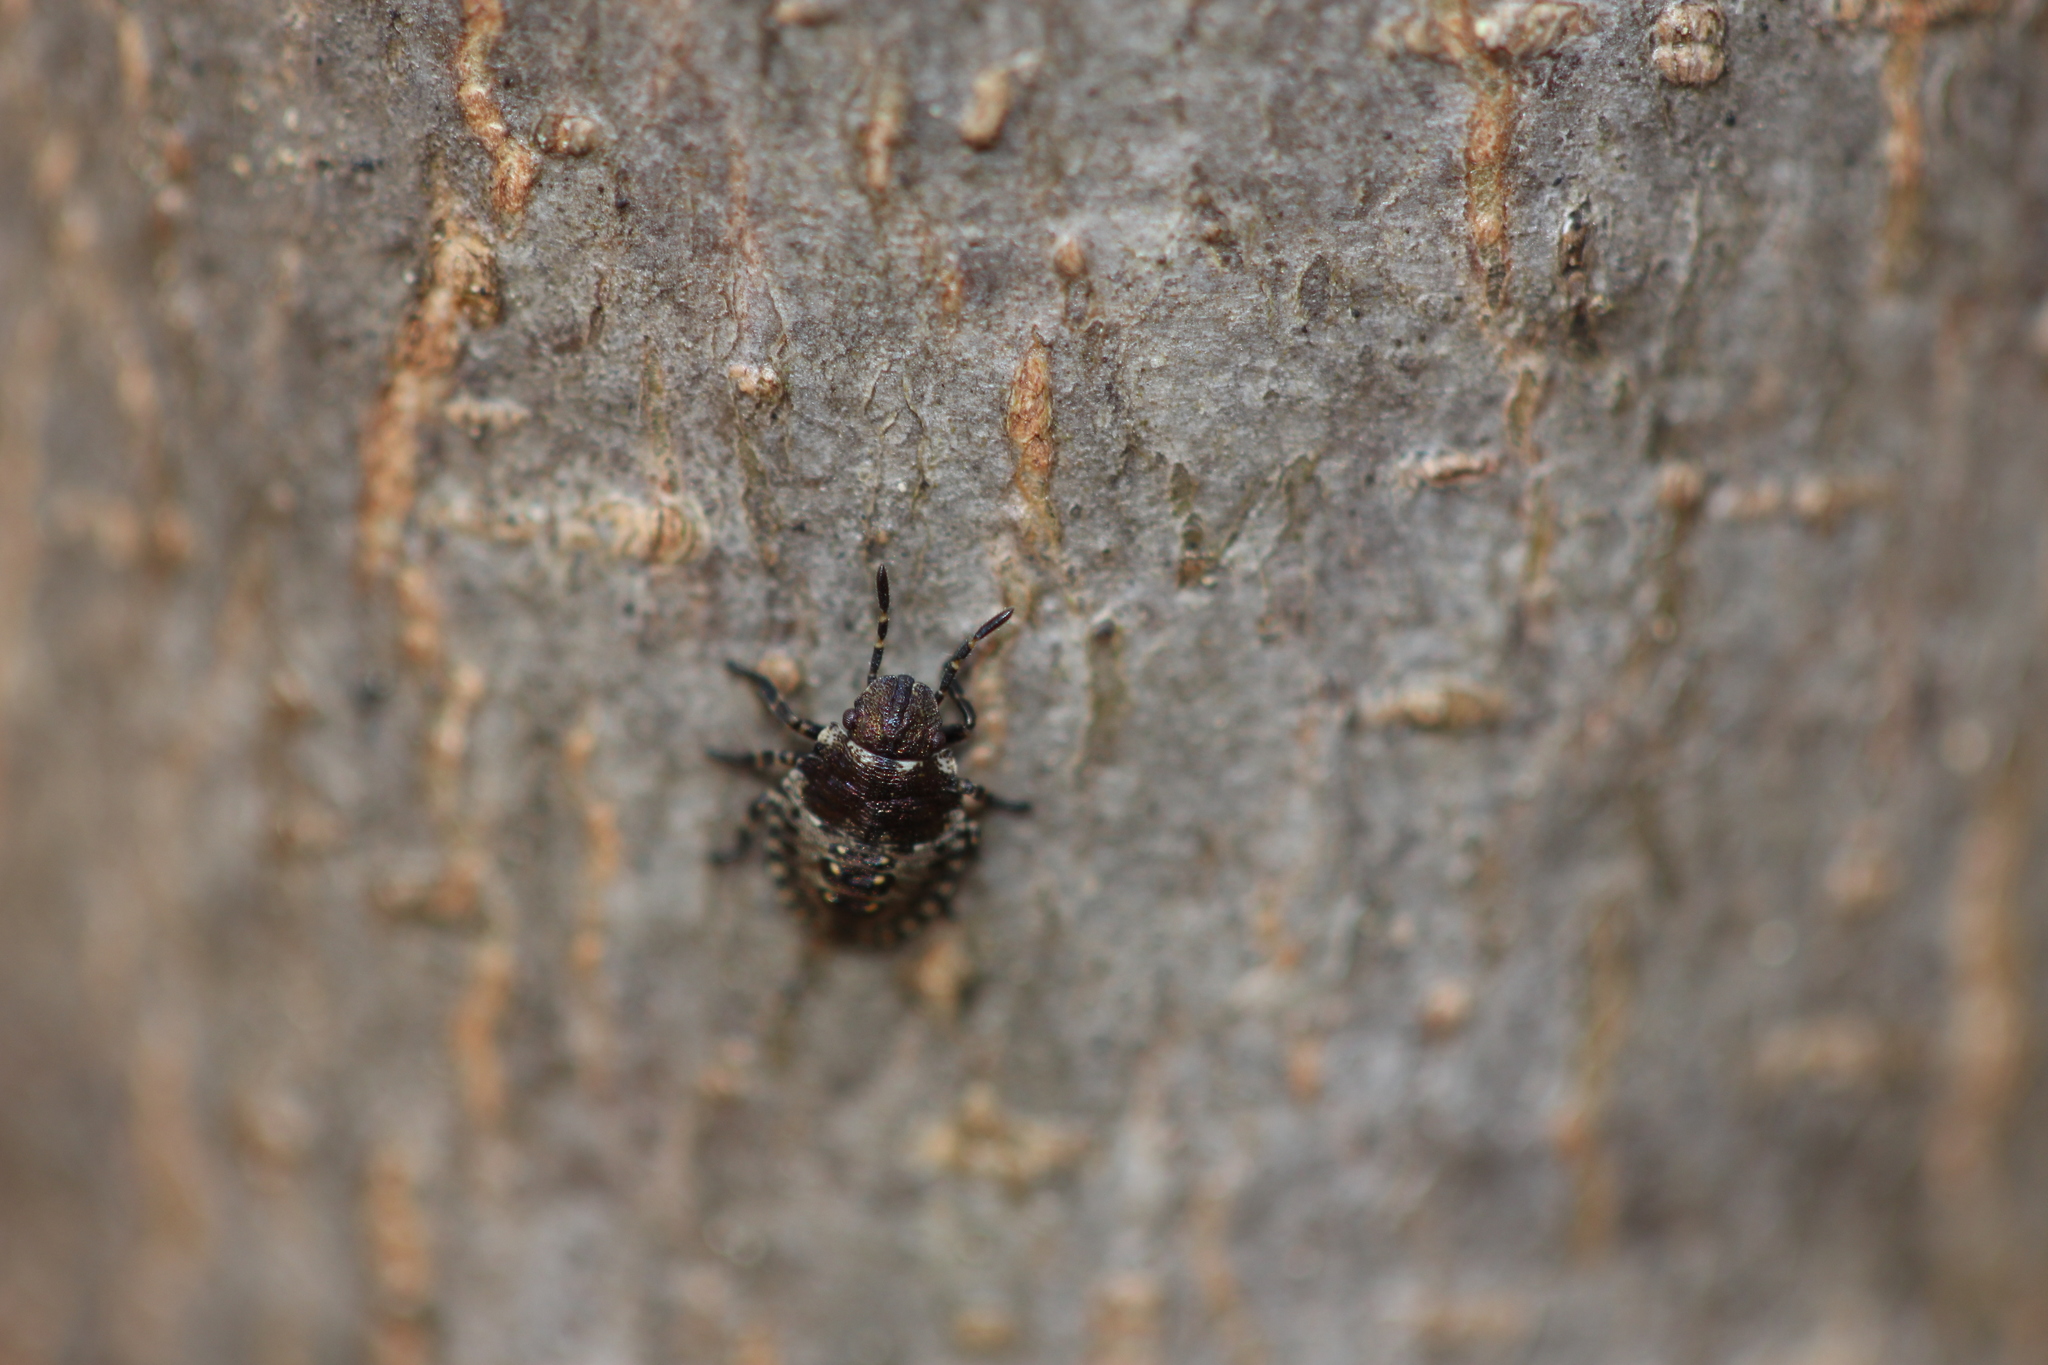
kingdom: Animalia
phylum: Arthropoda
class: Insecta
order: Hemiptera
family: Pentatomidae
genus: Pentatoma
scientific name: Pentatoma rufipes
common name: Forest bug
